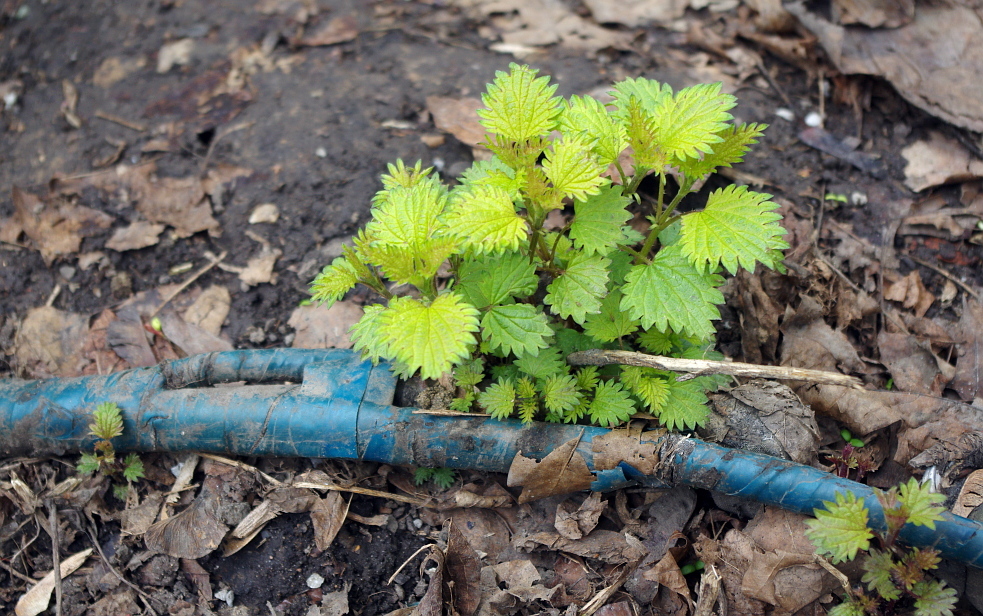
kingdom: Plantae
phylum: Tracheophyta
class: Magnoliopsida
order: Rosales
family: Urticaceae
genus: Urtica
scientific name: Urtica dioica
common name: Common nettle
